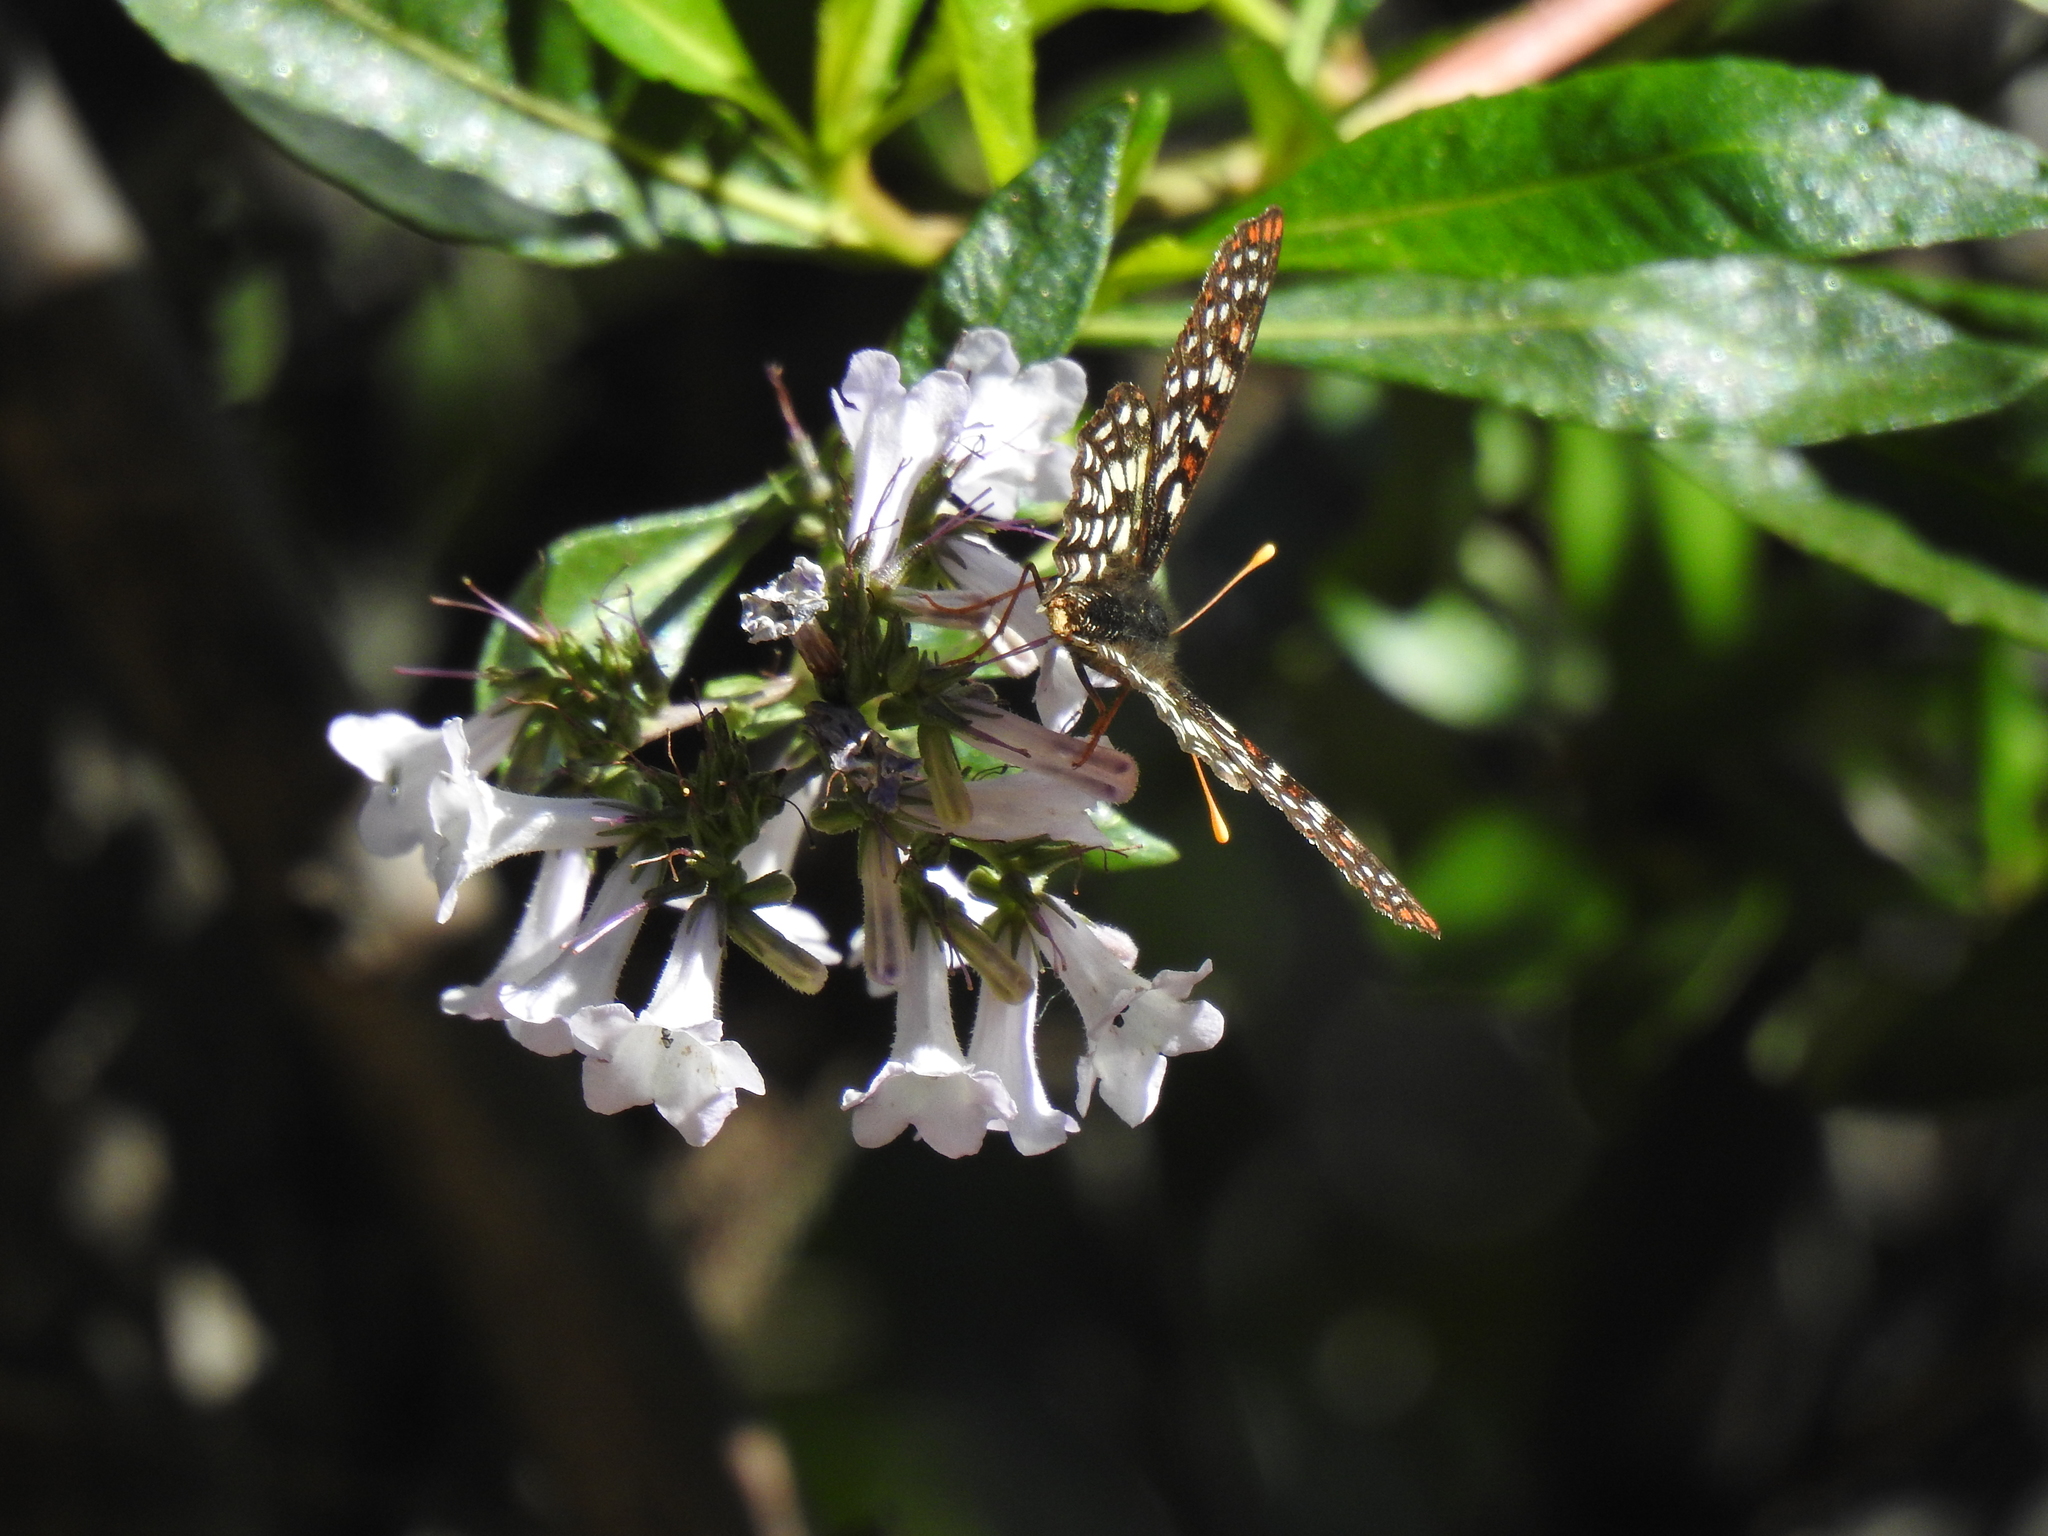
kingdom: Animalia
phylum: Arthropoda
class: Insecta
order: Lepidoptera
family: Nymphalidae
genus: Occidryas
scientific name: Occidryas chalcedona
